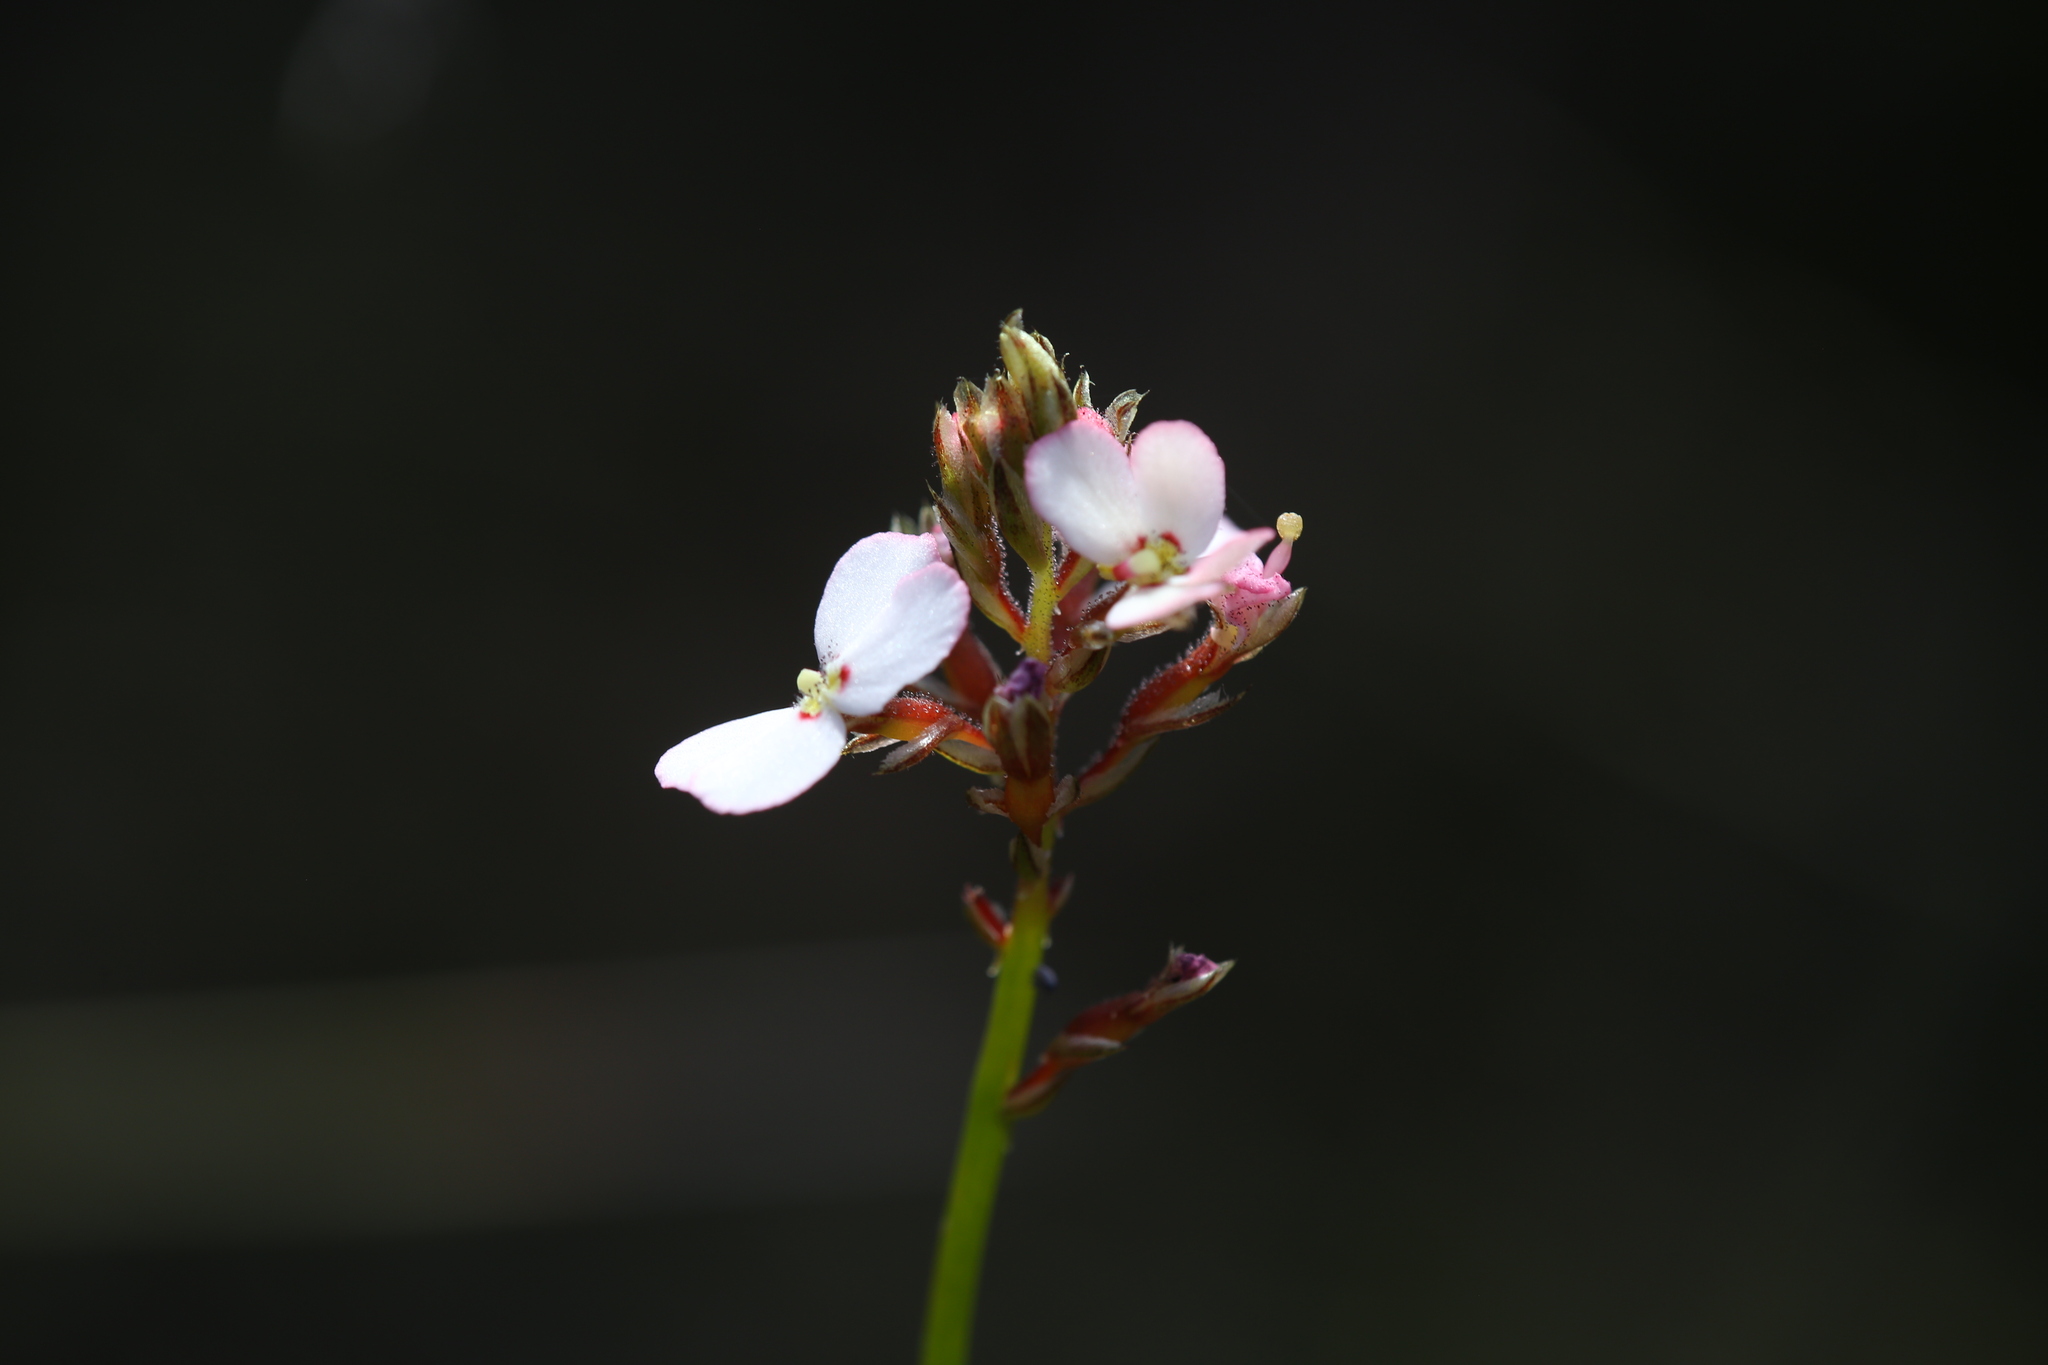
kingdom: Plantae
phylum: Tracheophyta
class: Magnoliopsida
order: Asterales
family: Stylidiaceae
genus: Stylidium
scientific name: Stylidium scariosum
